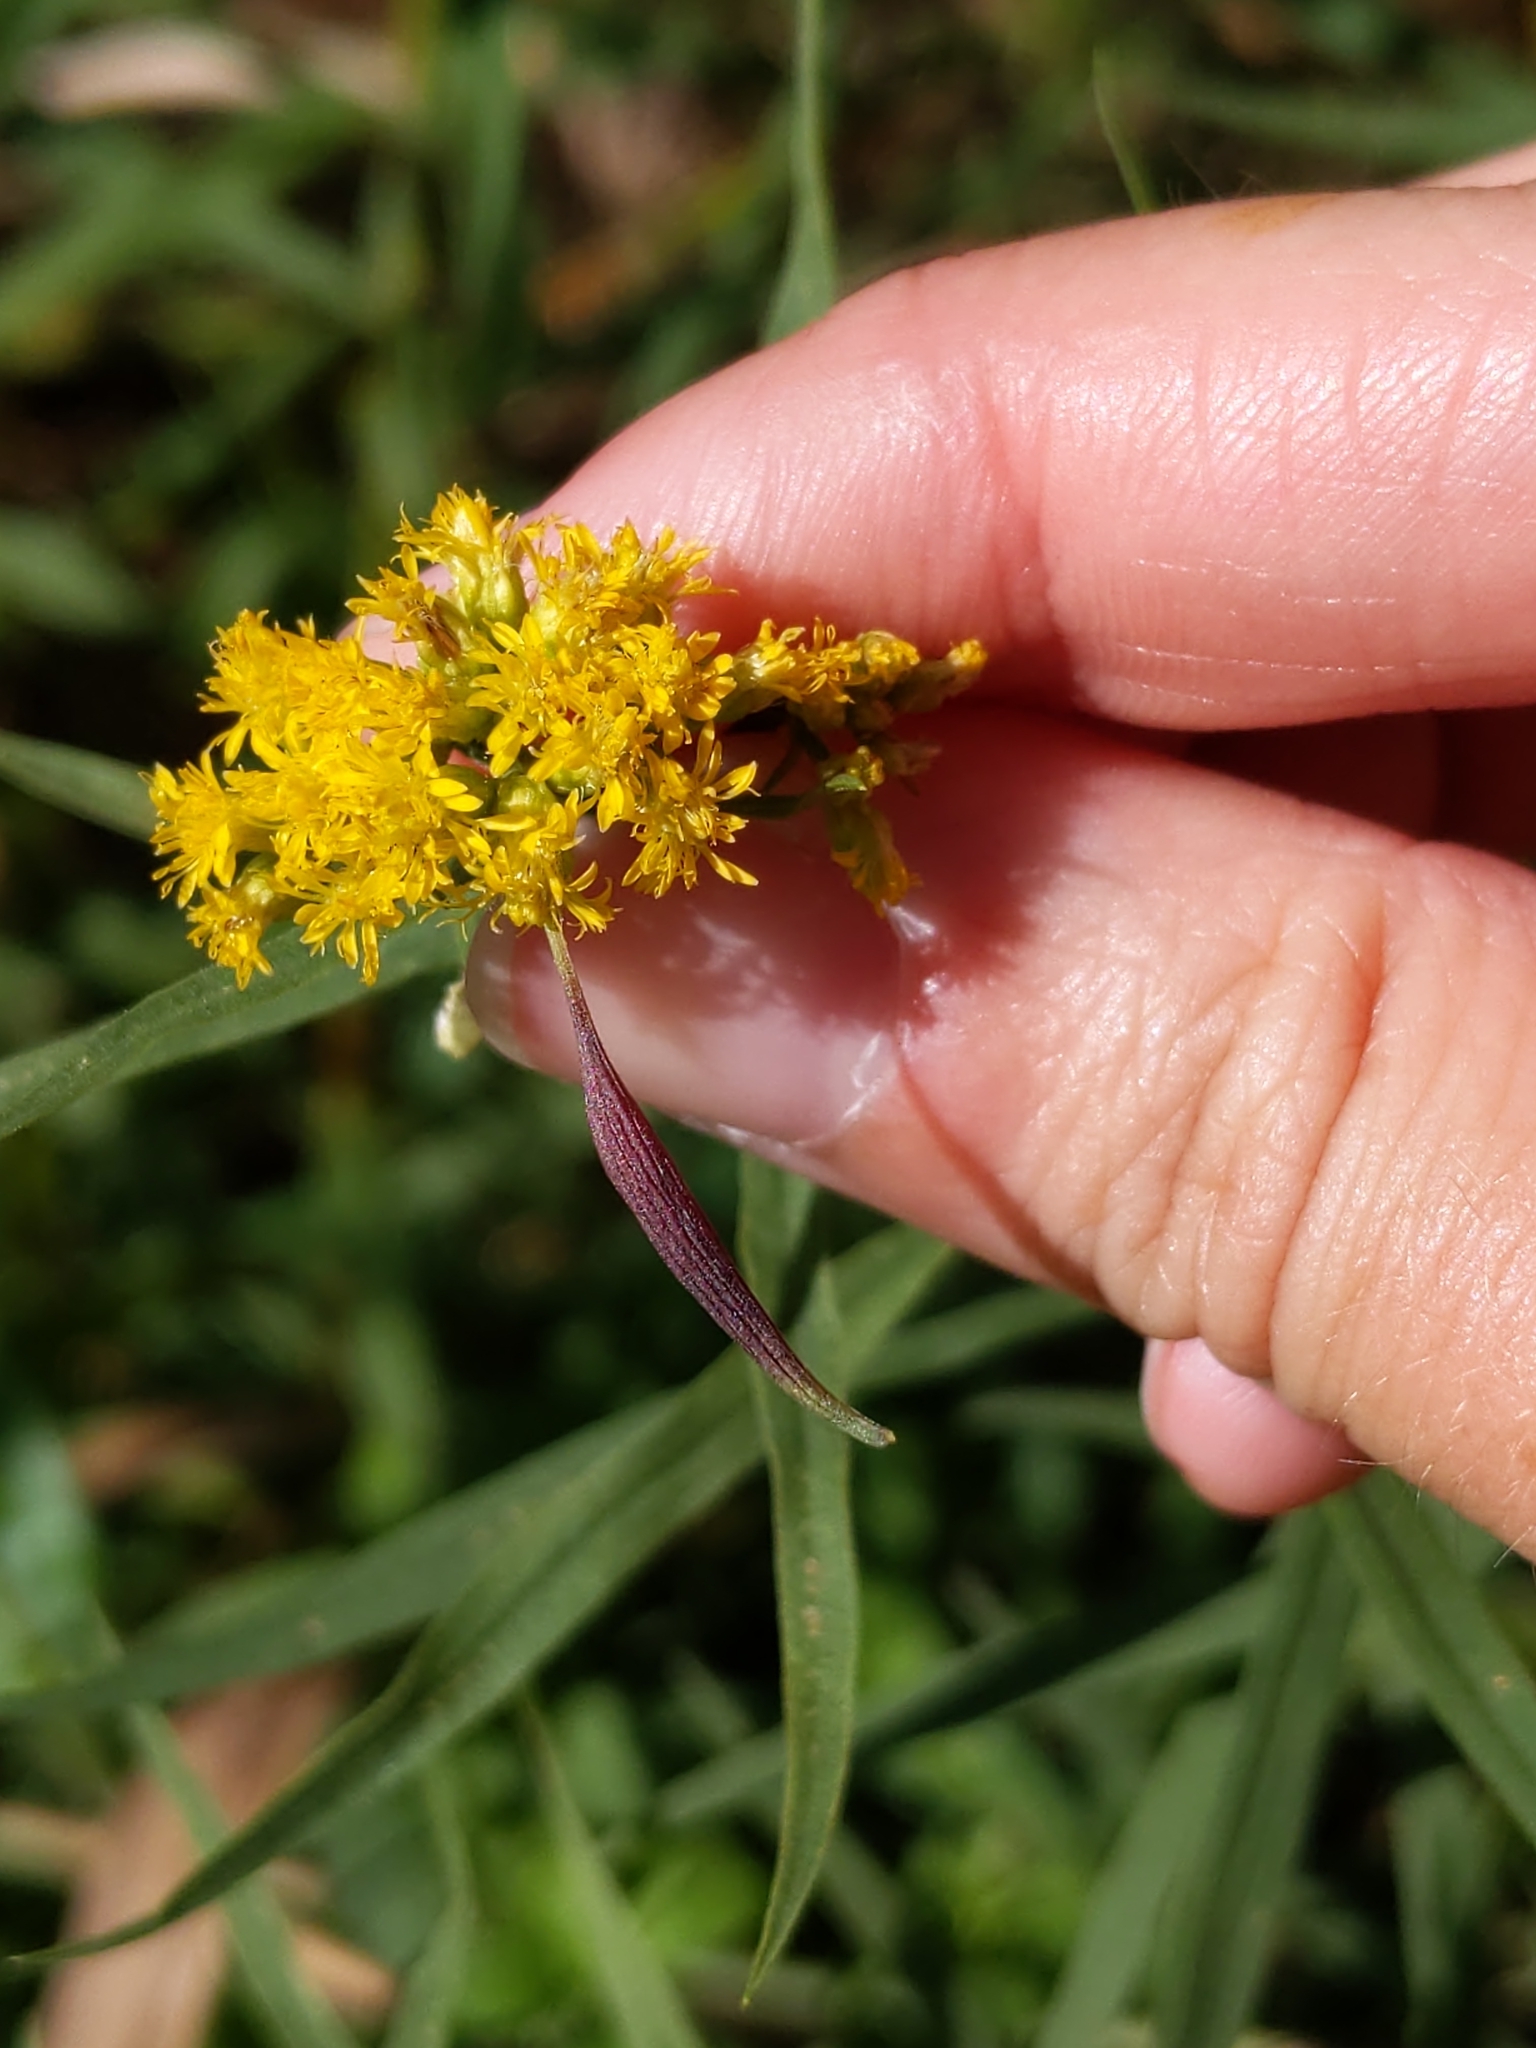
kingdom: Animalia
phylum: Arthropoda
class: Insecta
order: Diptera
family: Cecidomyiidae
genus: Rhopalomyia
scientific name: Rhopalomyia pedicellata
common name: Goldentop pedicellate gall midge
